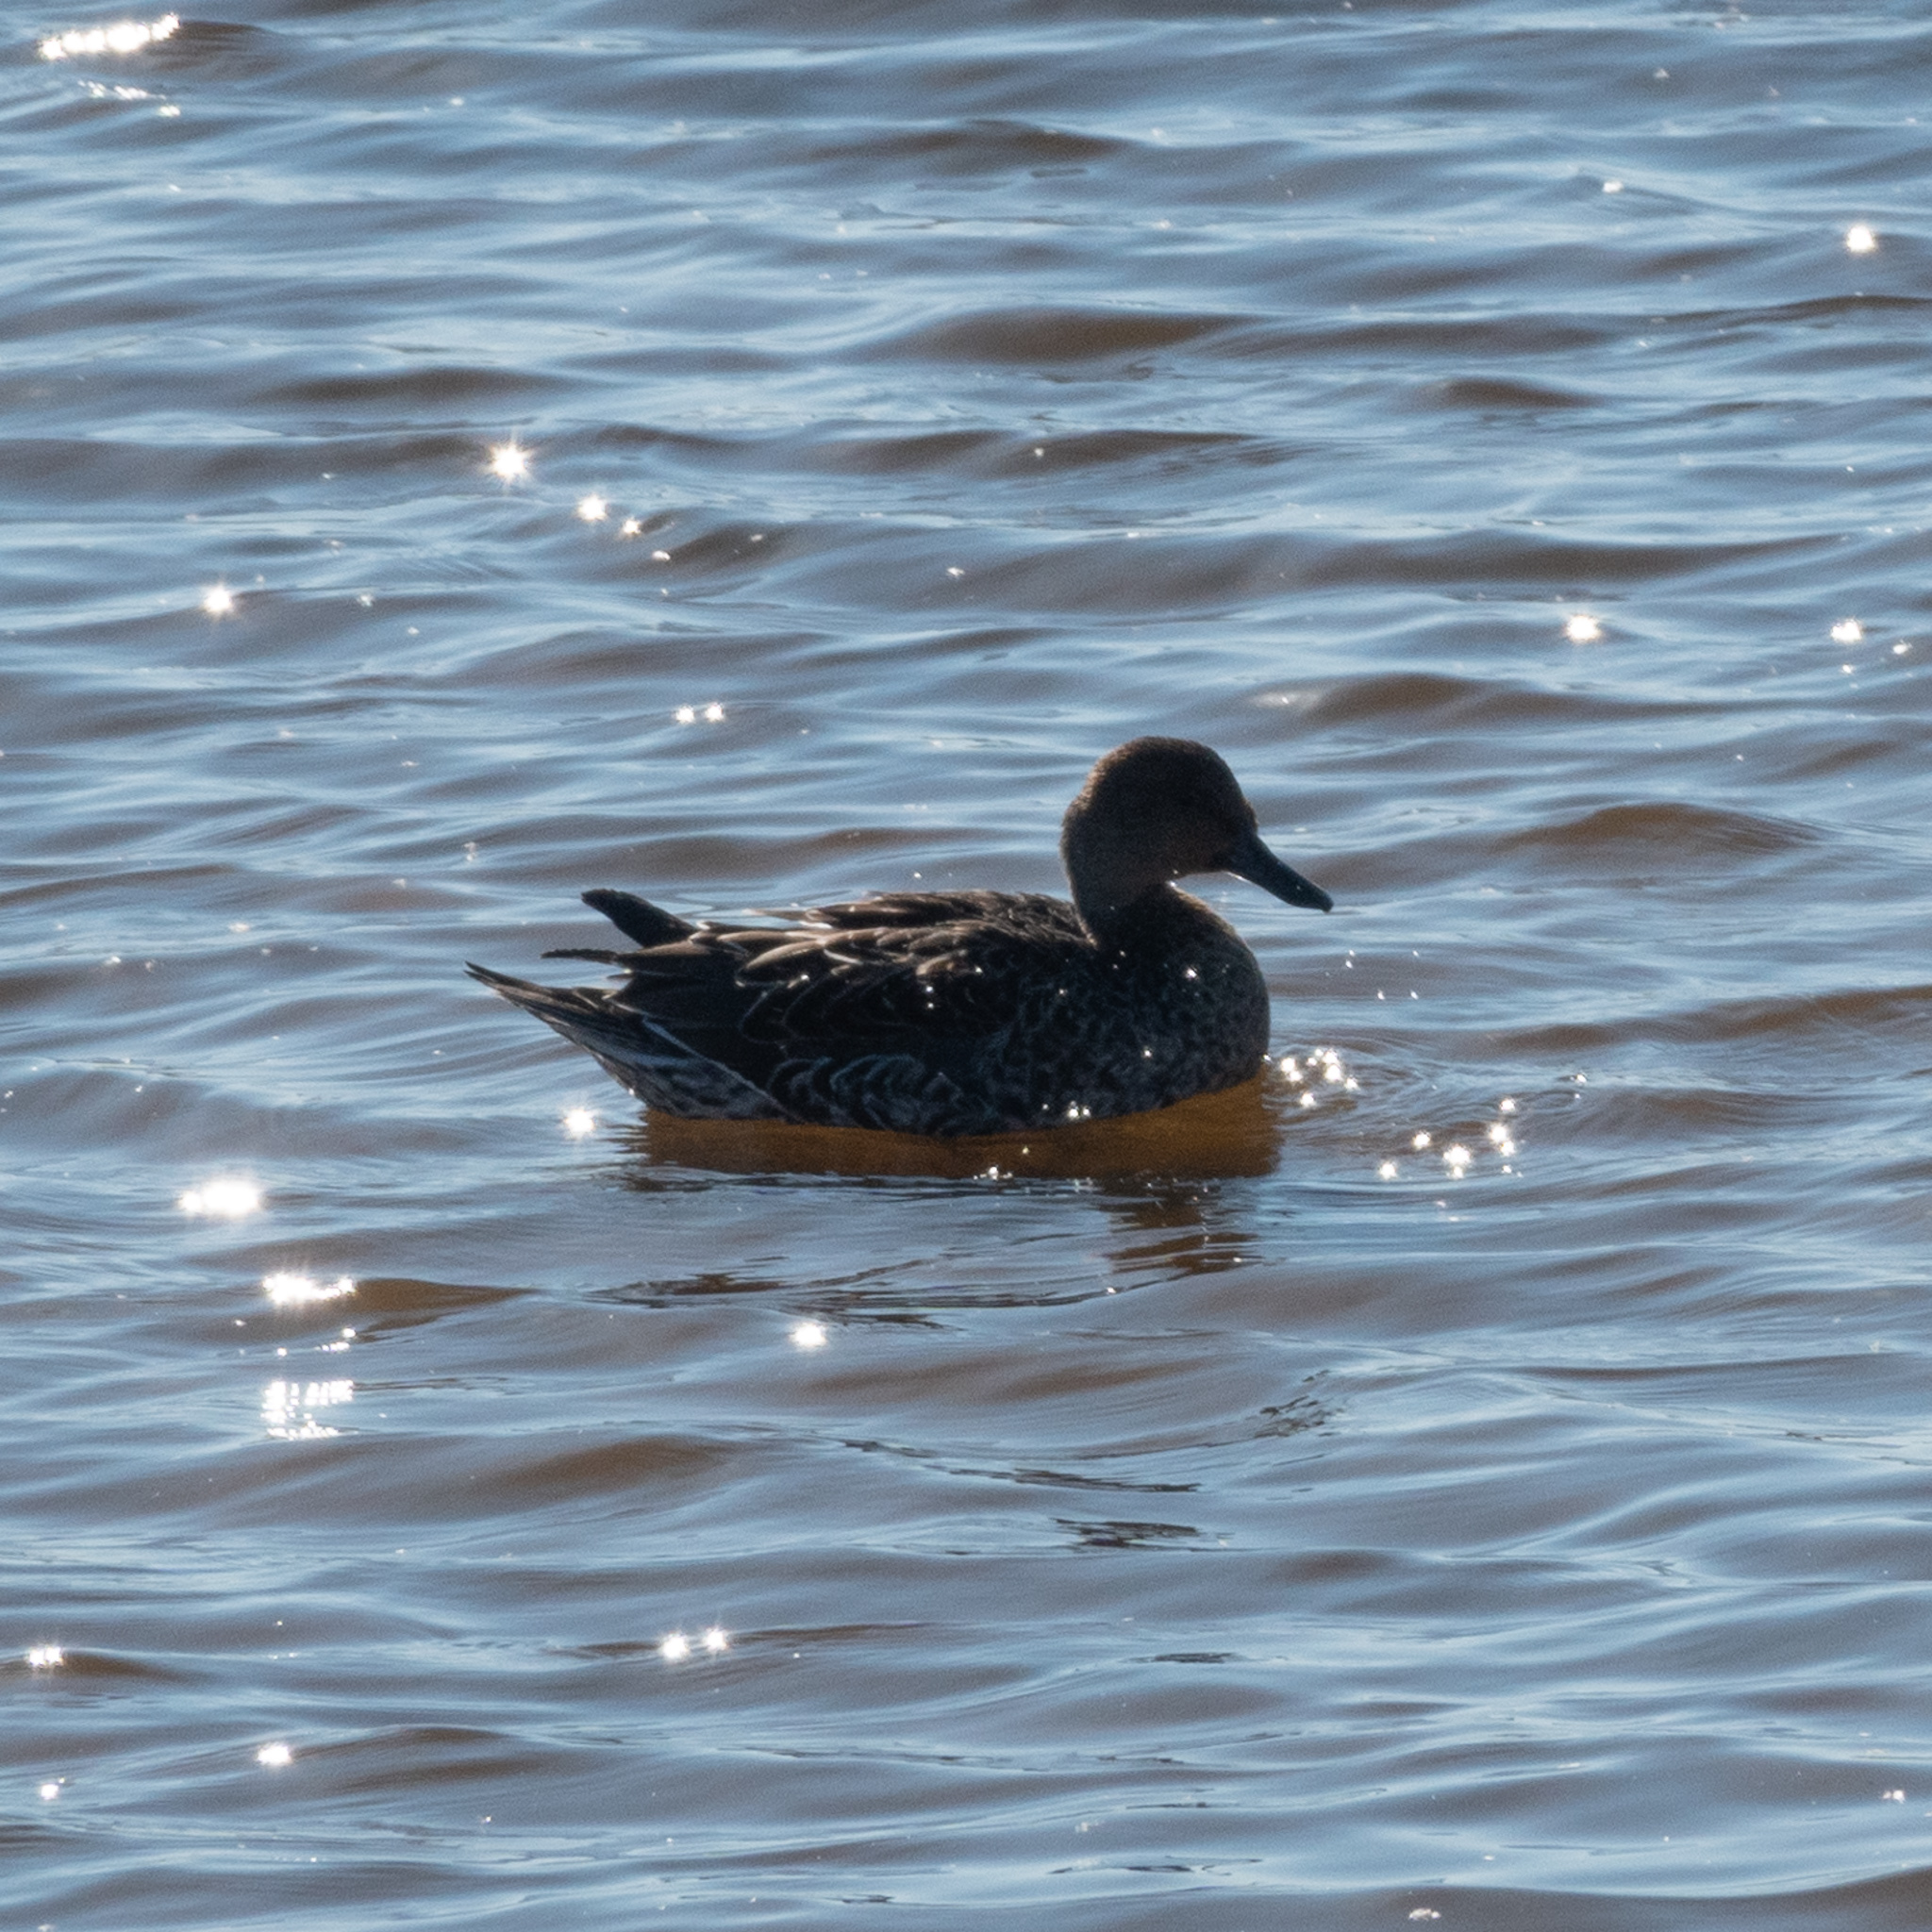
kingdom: Animalia
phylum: Chordata
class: Aves
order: Anseriformes
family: Anatidae
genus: Anas
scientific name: Anas acuta
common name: Northern pintail
